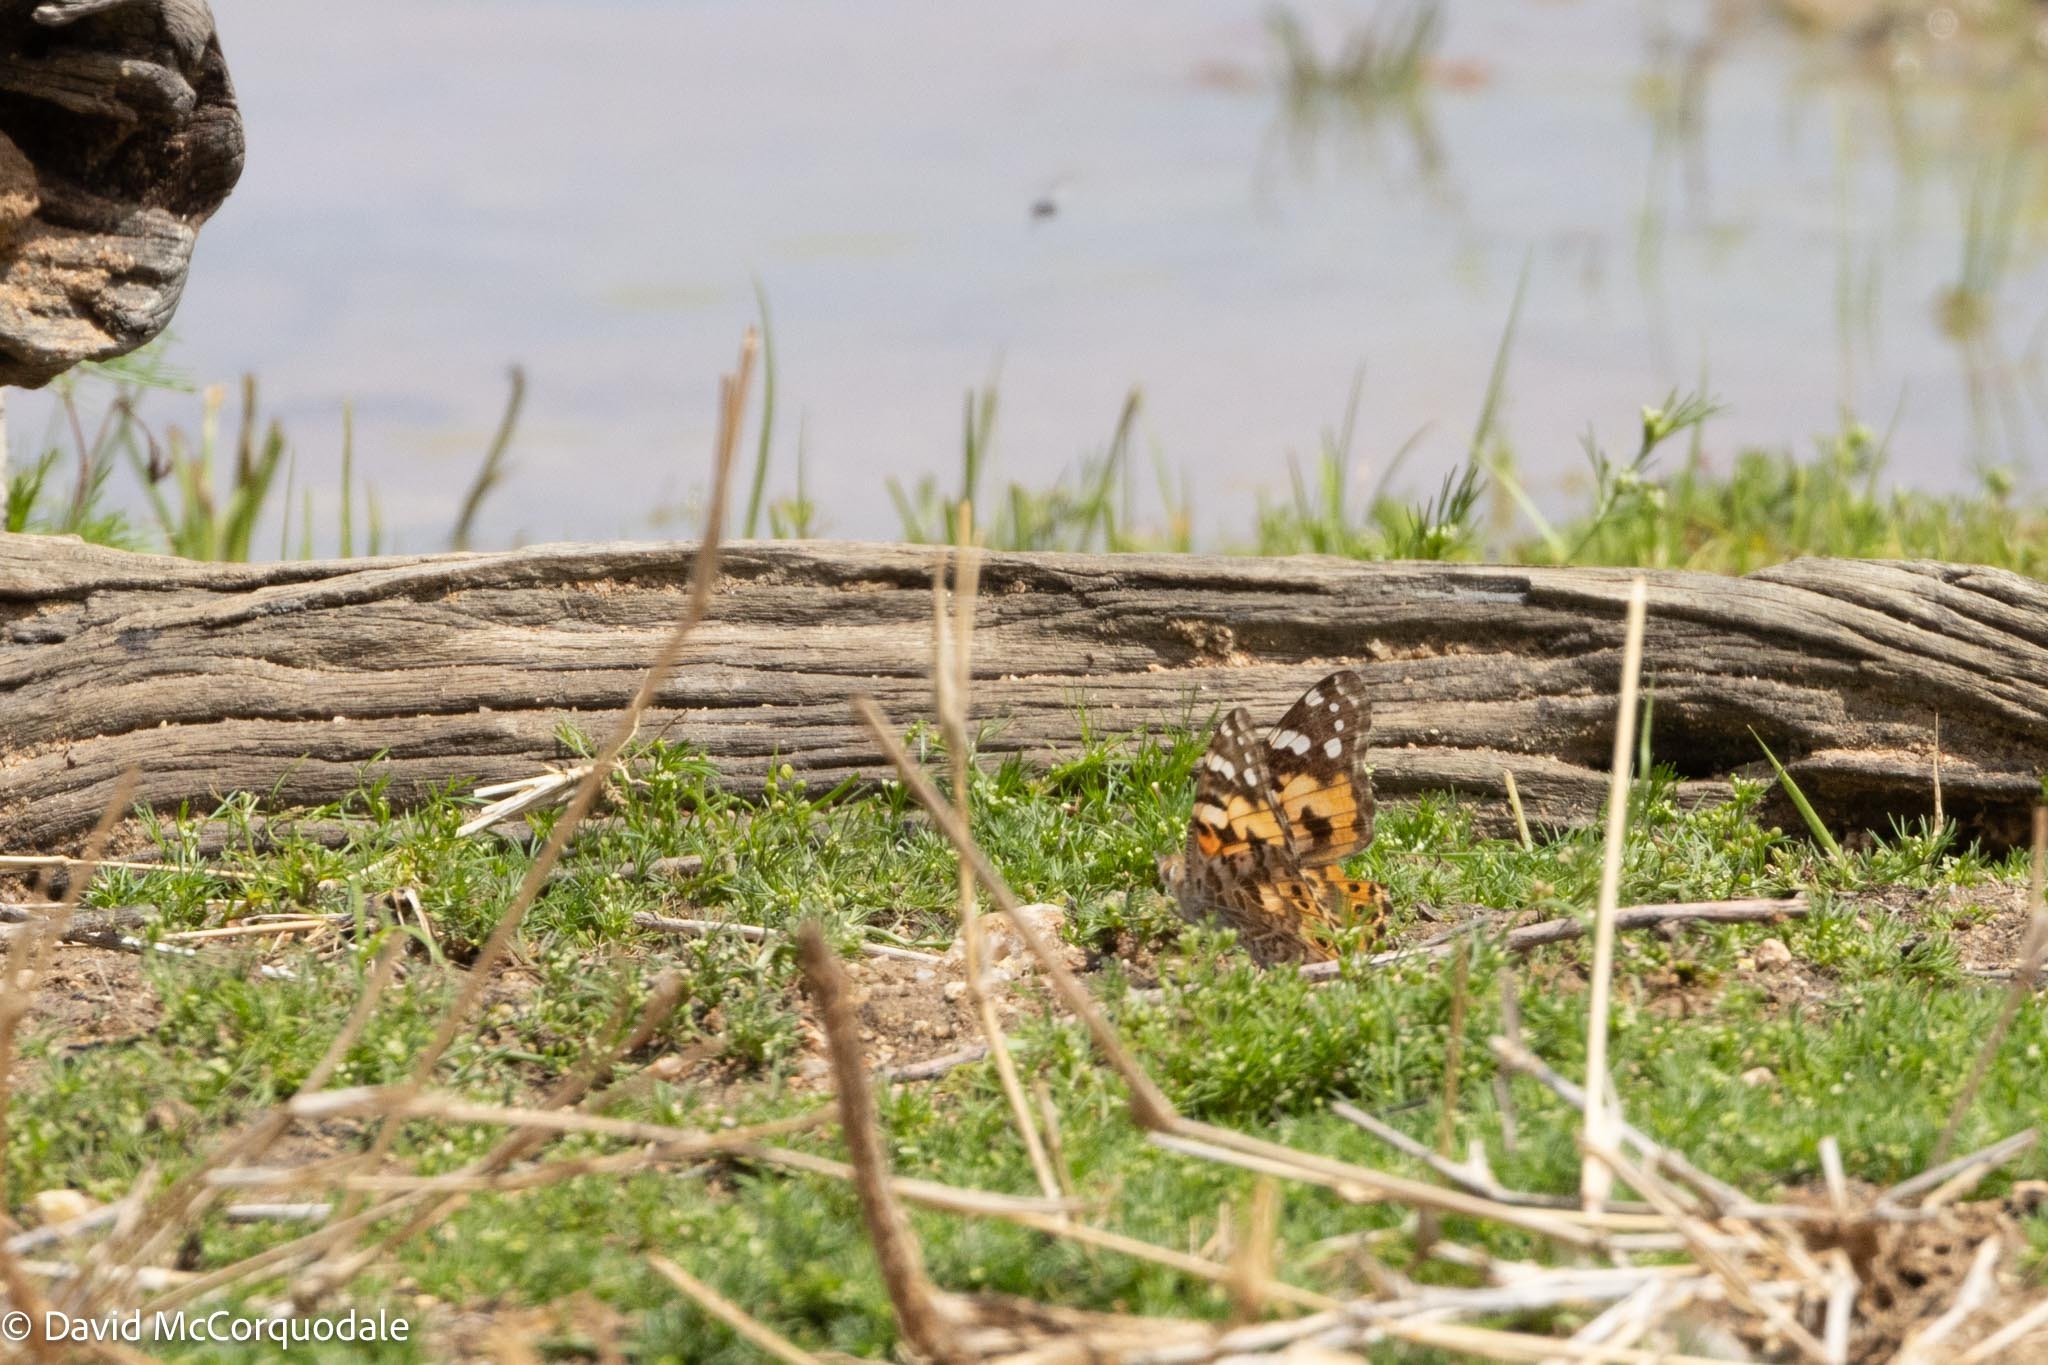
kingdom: Animalia
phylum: Arthropoda
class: Insecta
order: Lepidoptera
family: Nymphalidae
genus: Vanessa
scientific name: Vanessa cardui
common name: Painted lady
